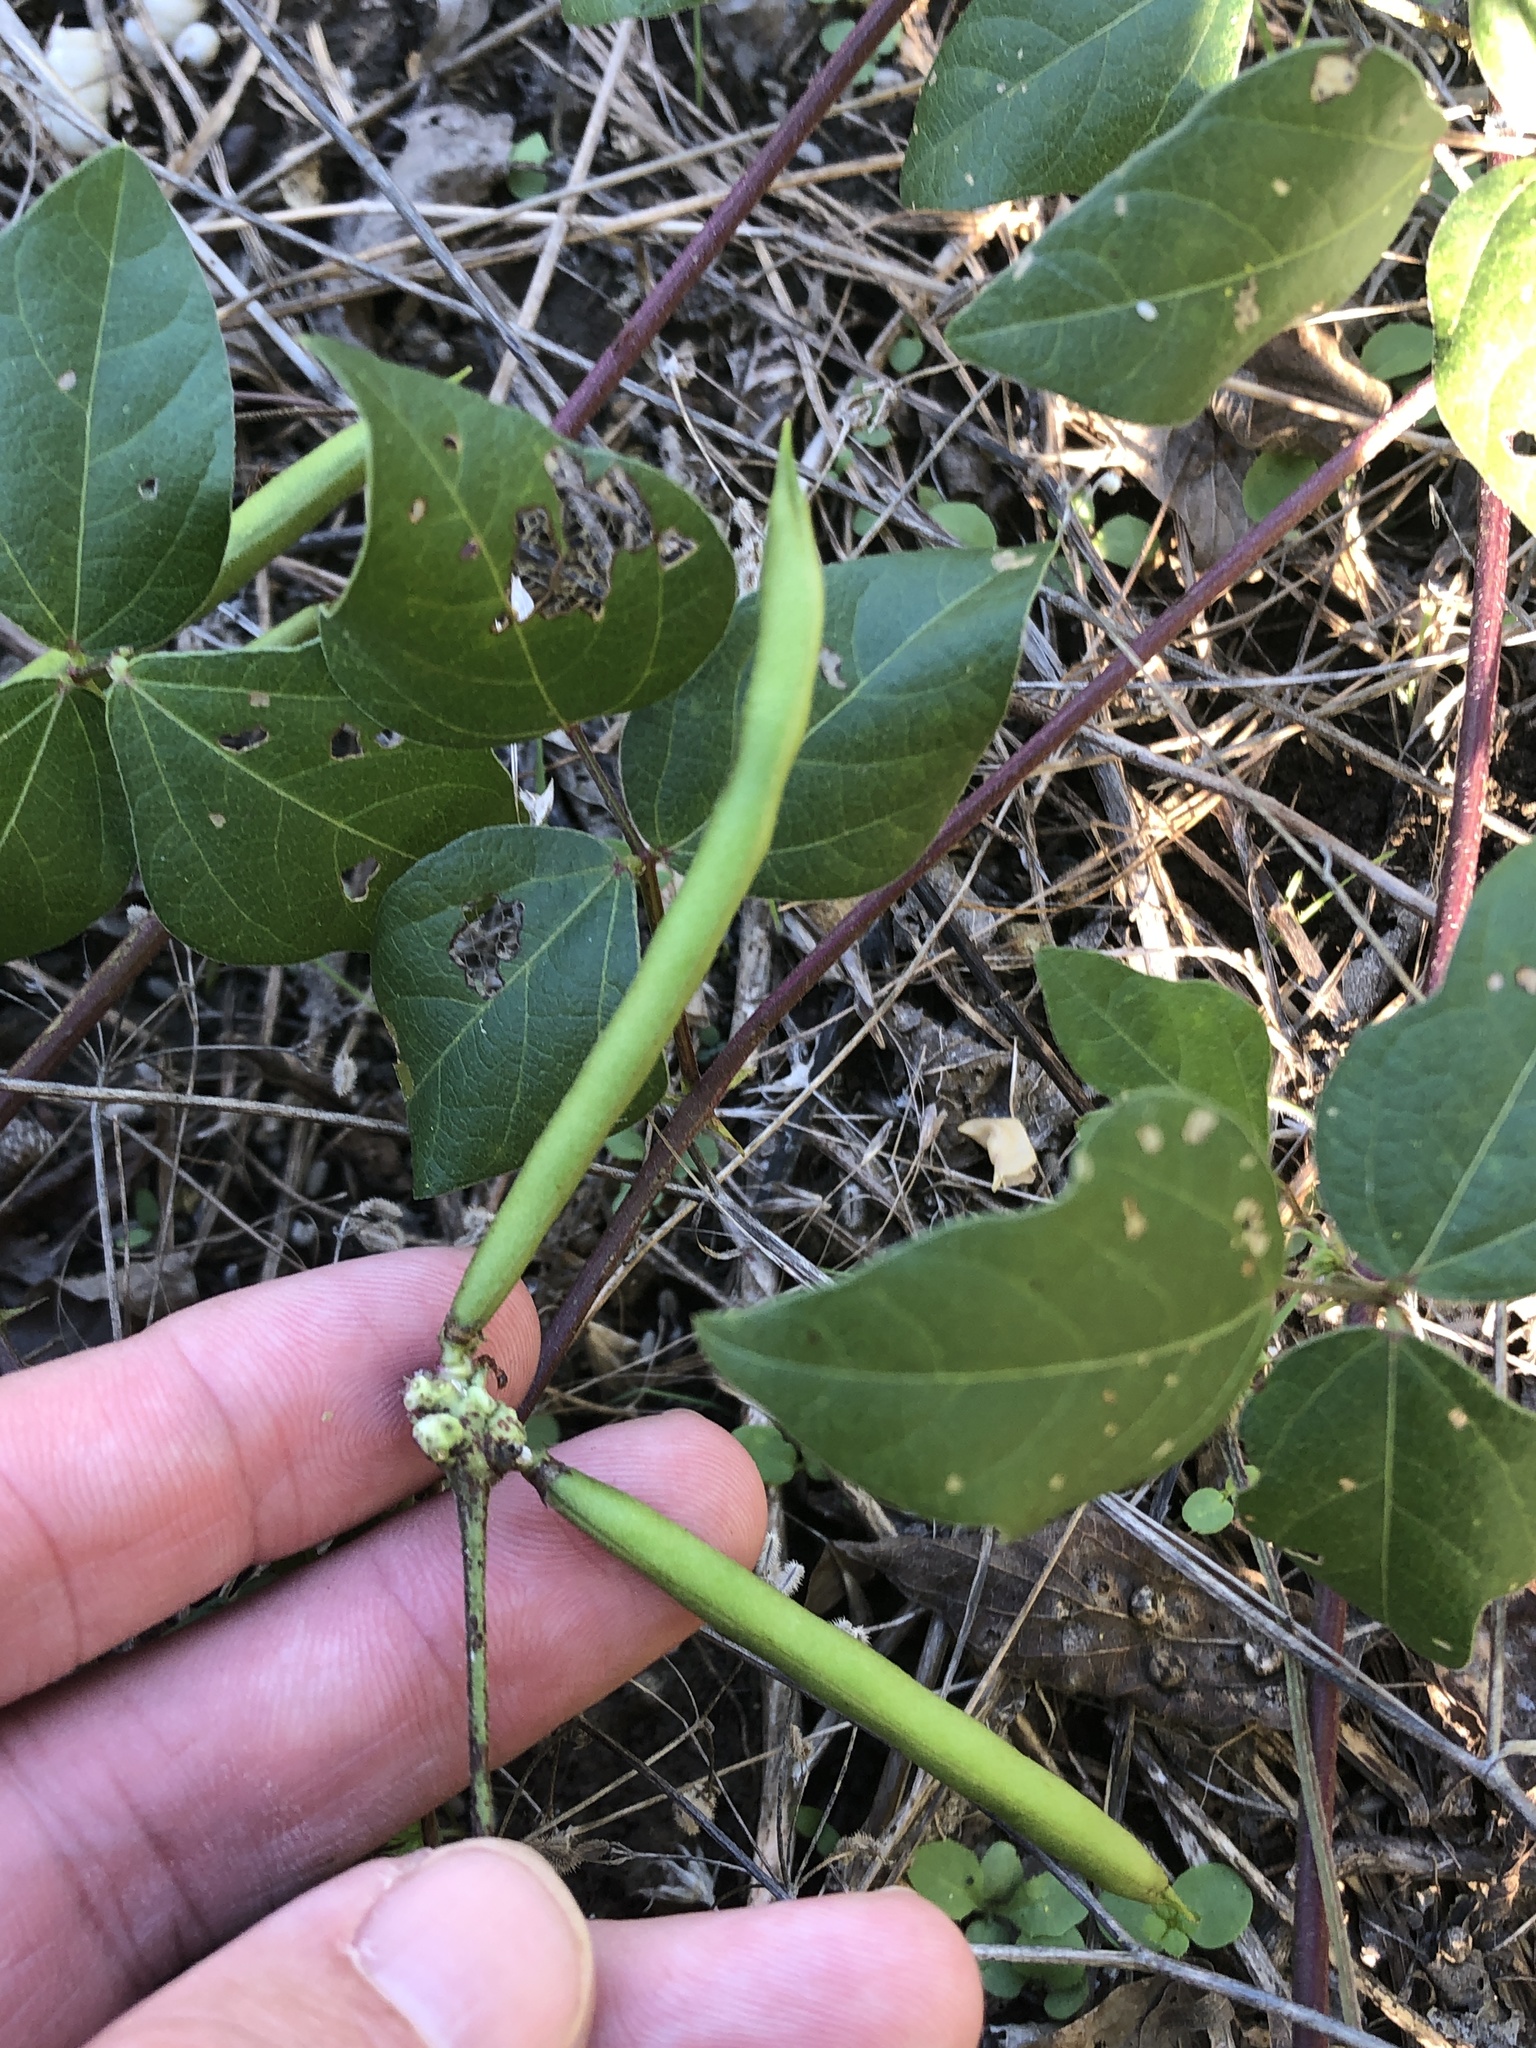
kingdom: Plantae
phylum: Tracheophyta
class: Magnoliopsida
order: Fabales
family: Fabaceae
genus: Strophostyles
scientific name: Strophostyles helvola
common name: Trailing wild bean
